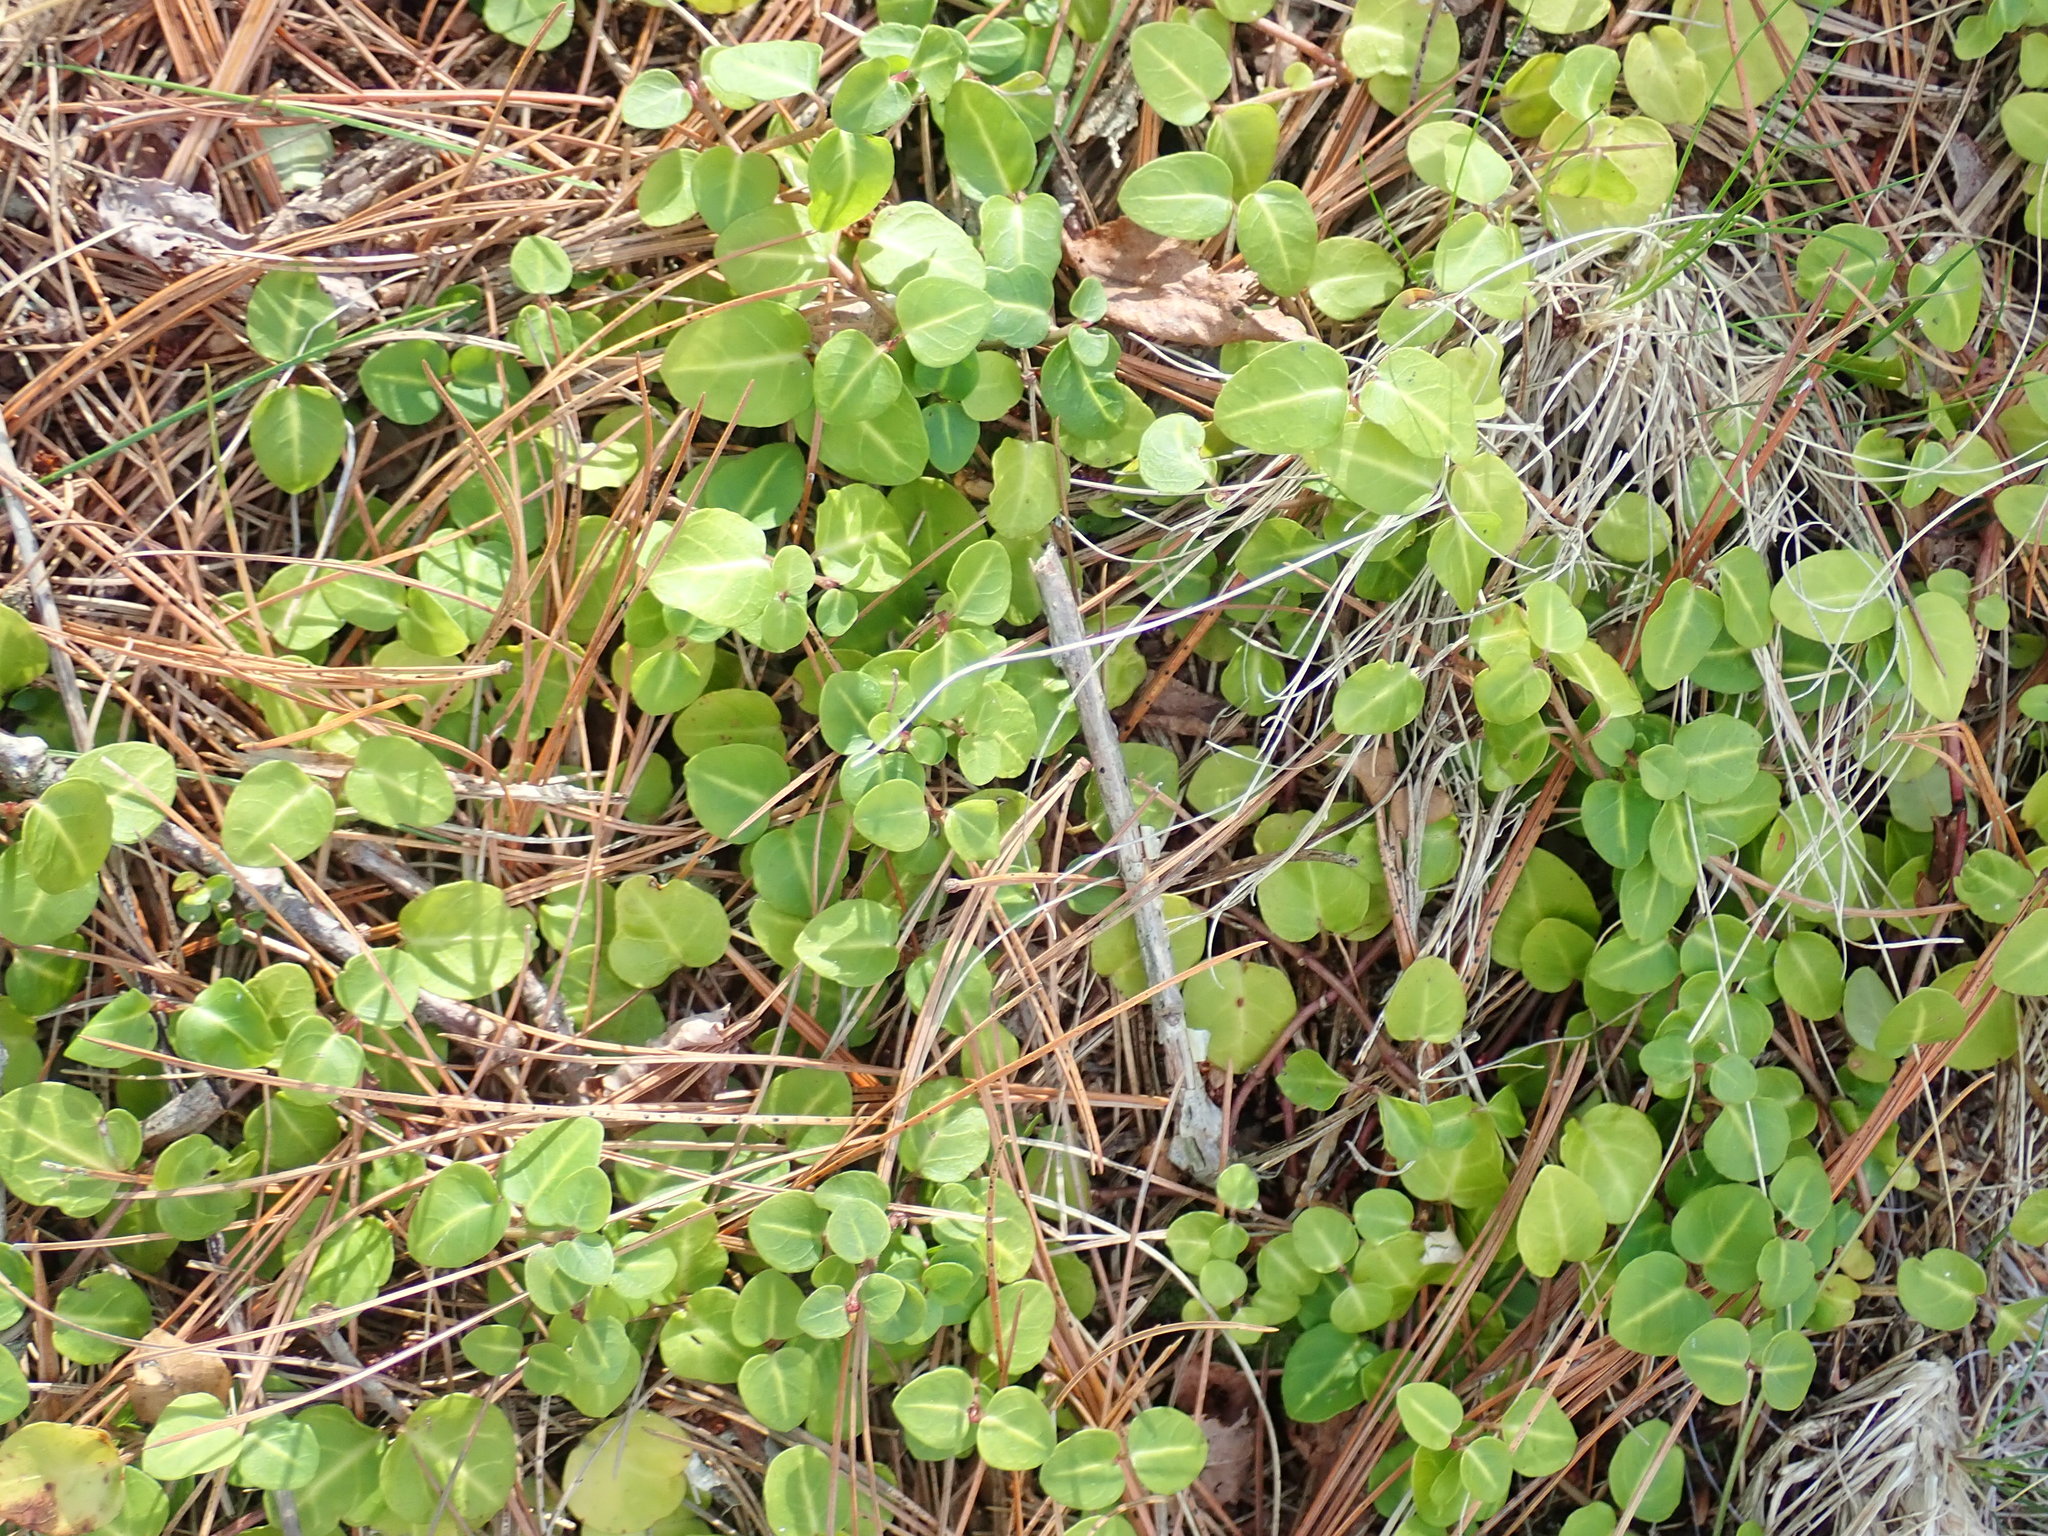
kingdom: Plantae
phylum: Tracheophyta
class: Magnoliopsida
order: Gentianales
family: Rubiaceae
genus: Mitchella
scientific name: Mitchella repens
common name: Partridge-berry
